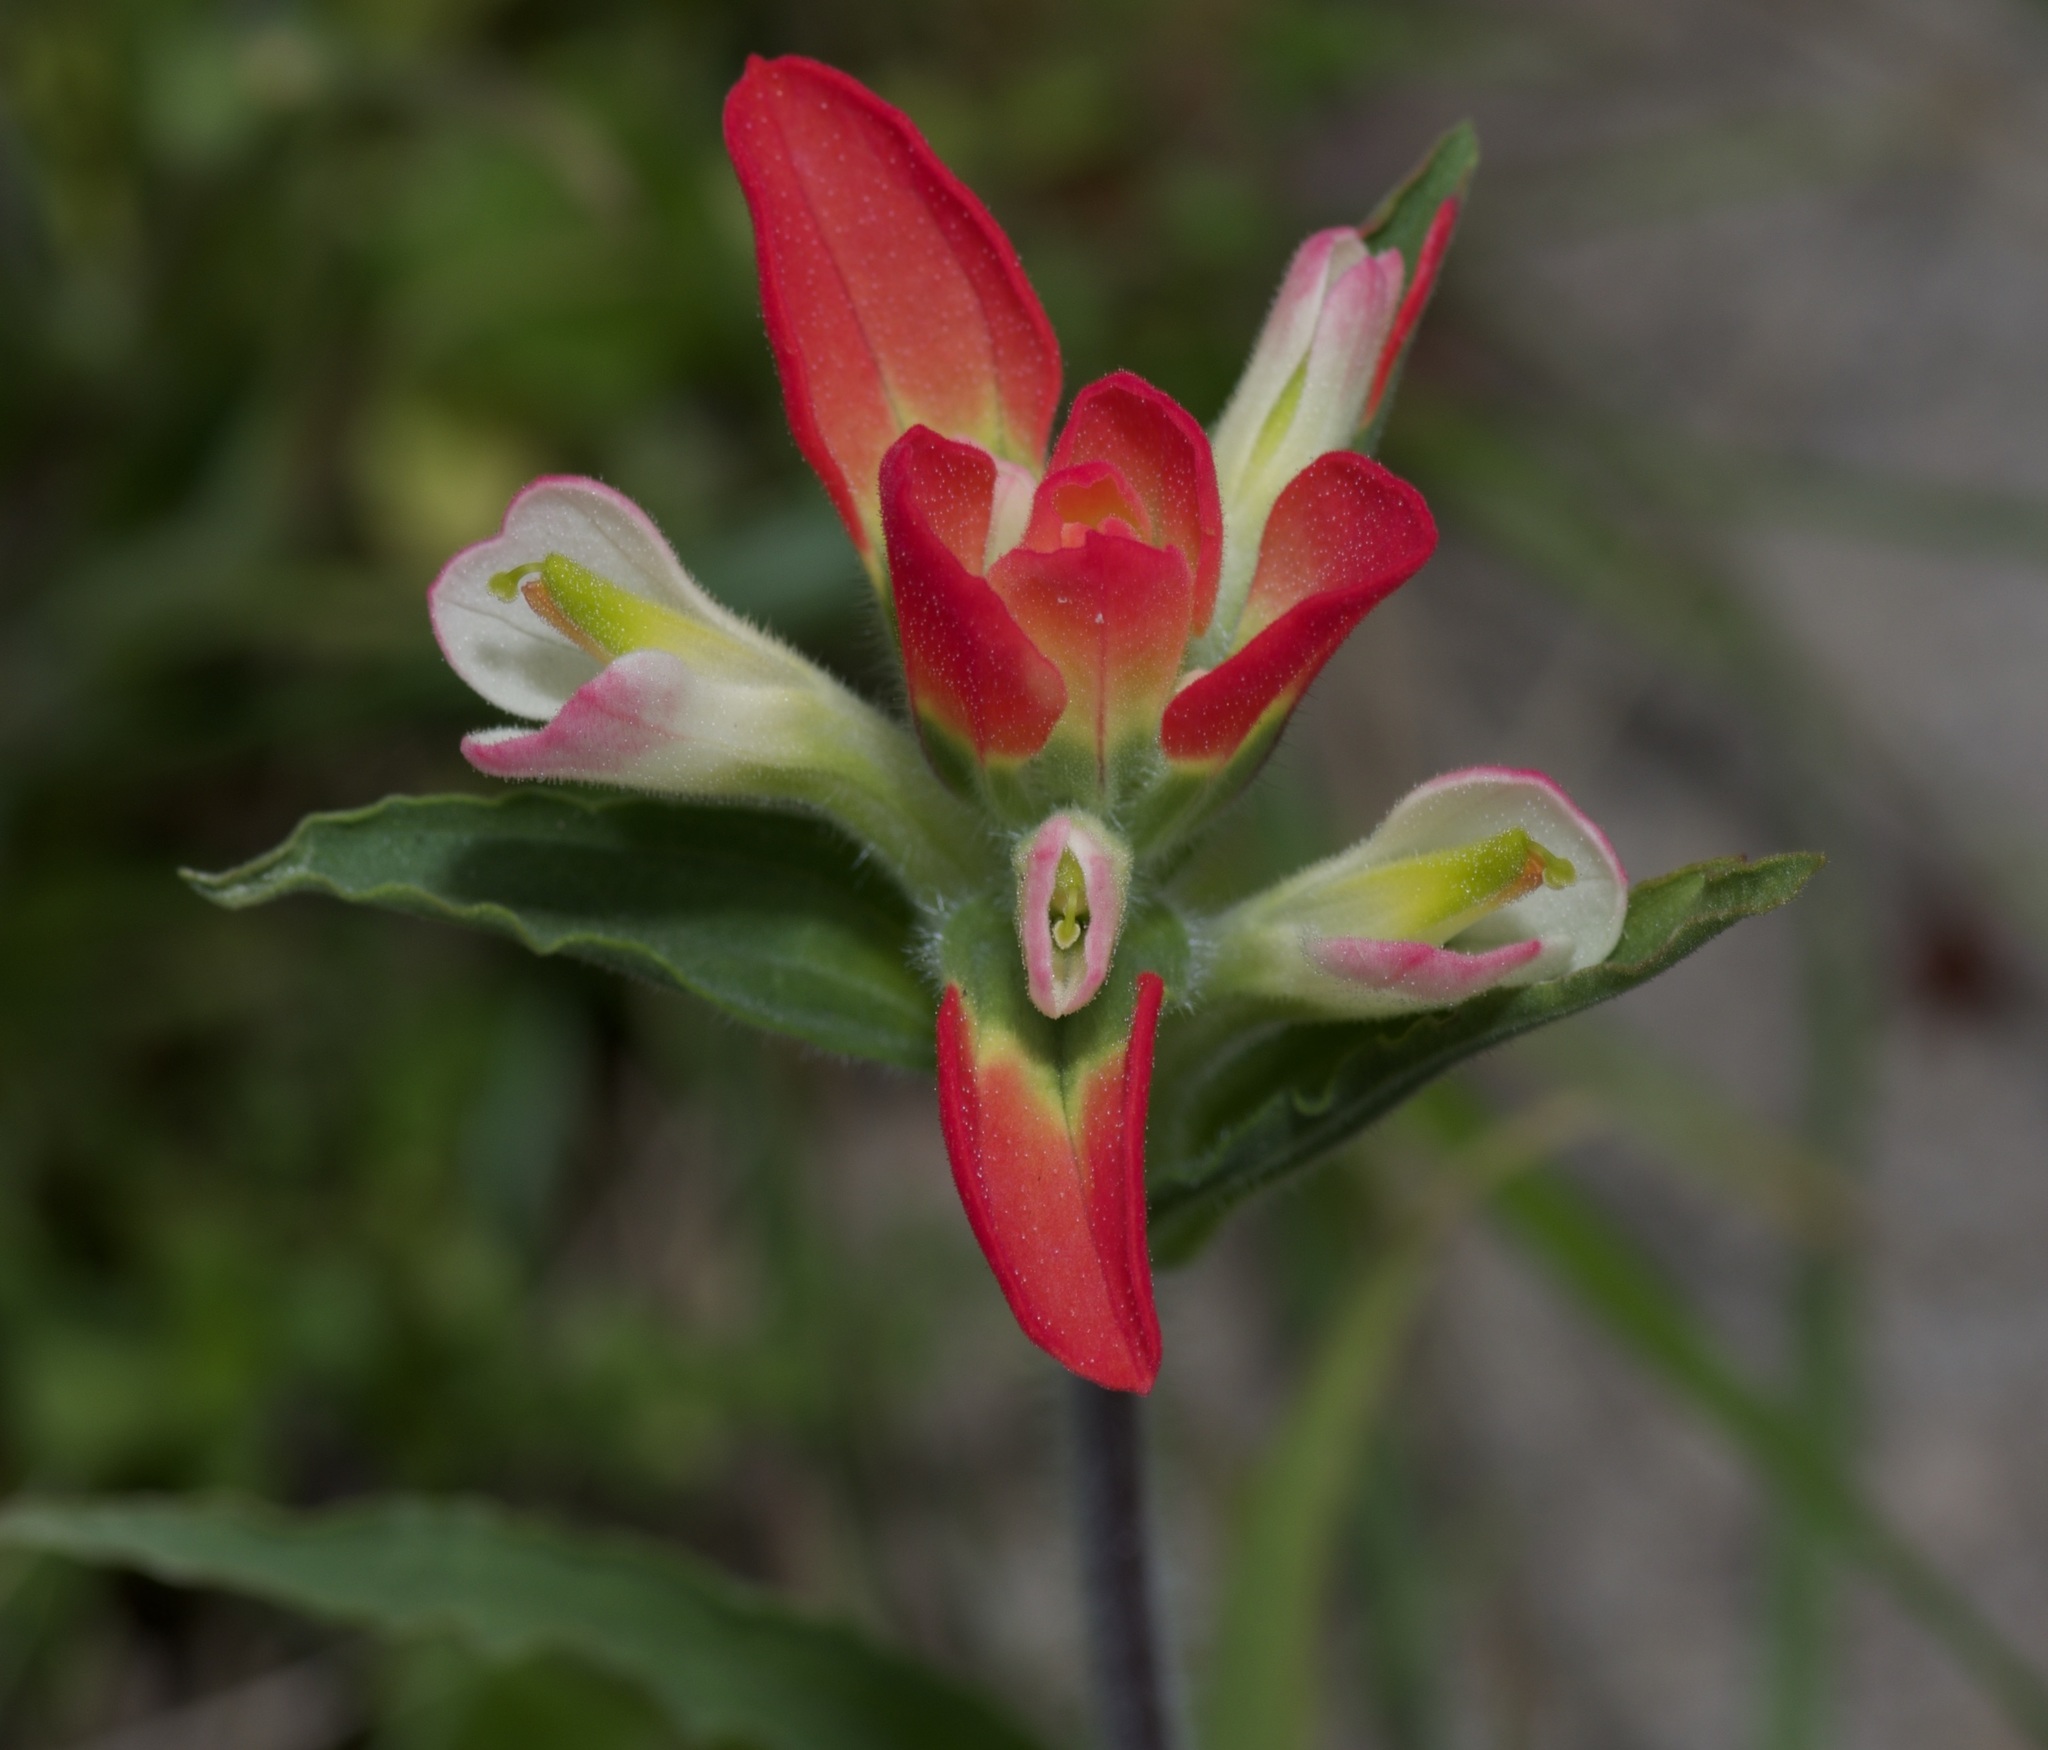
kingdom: Plantae
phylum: Tracheophyta
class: Magnoliopsida
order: Lamiales
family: Orobanchaceae
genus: Castilleja
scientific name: Castilleja indivisa
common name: Texas paintbrush
